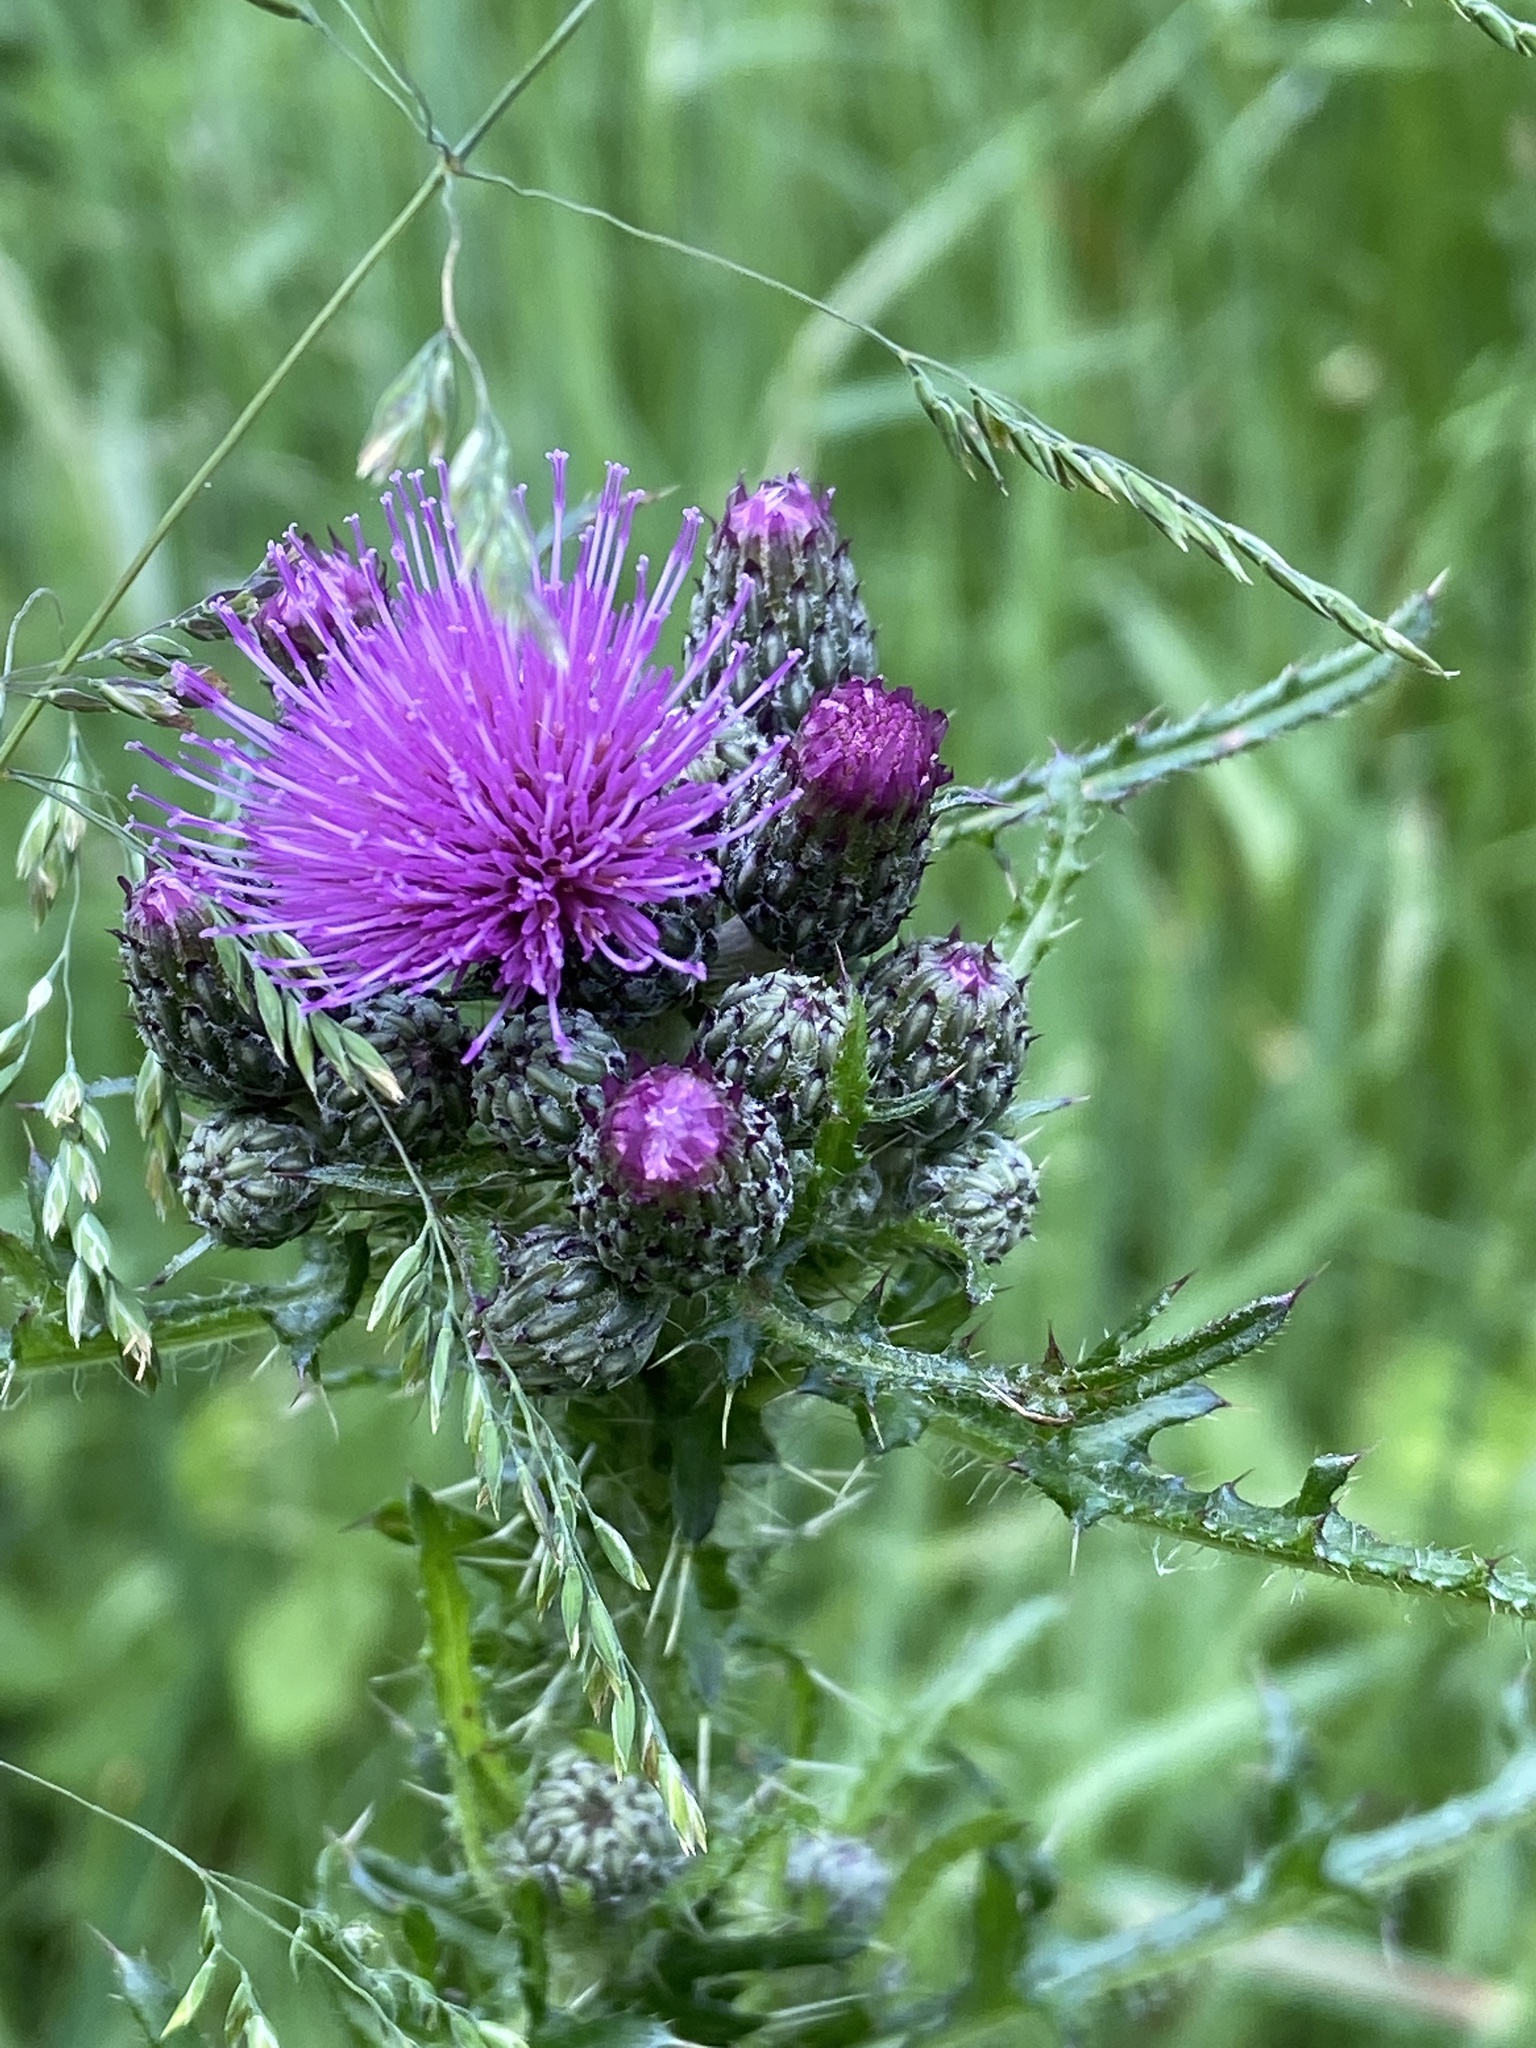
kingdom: Plantae
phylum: Tracheophyta
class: Magnoliopsida
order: Asterales
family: Asteraceae
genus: Cirsium
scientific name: Cirsium palustre
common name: Marsh thistle
